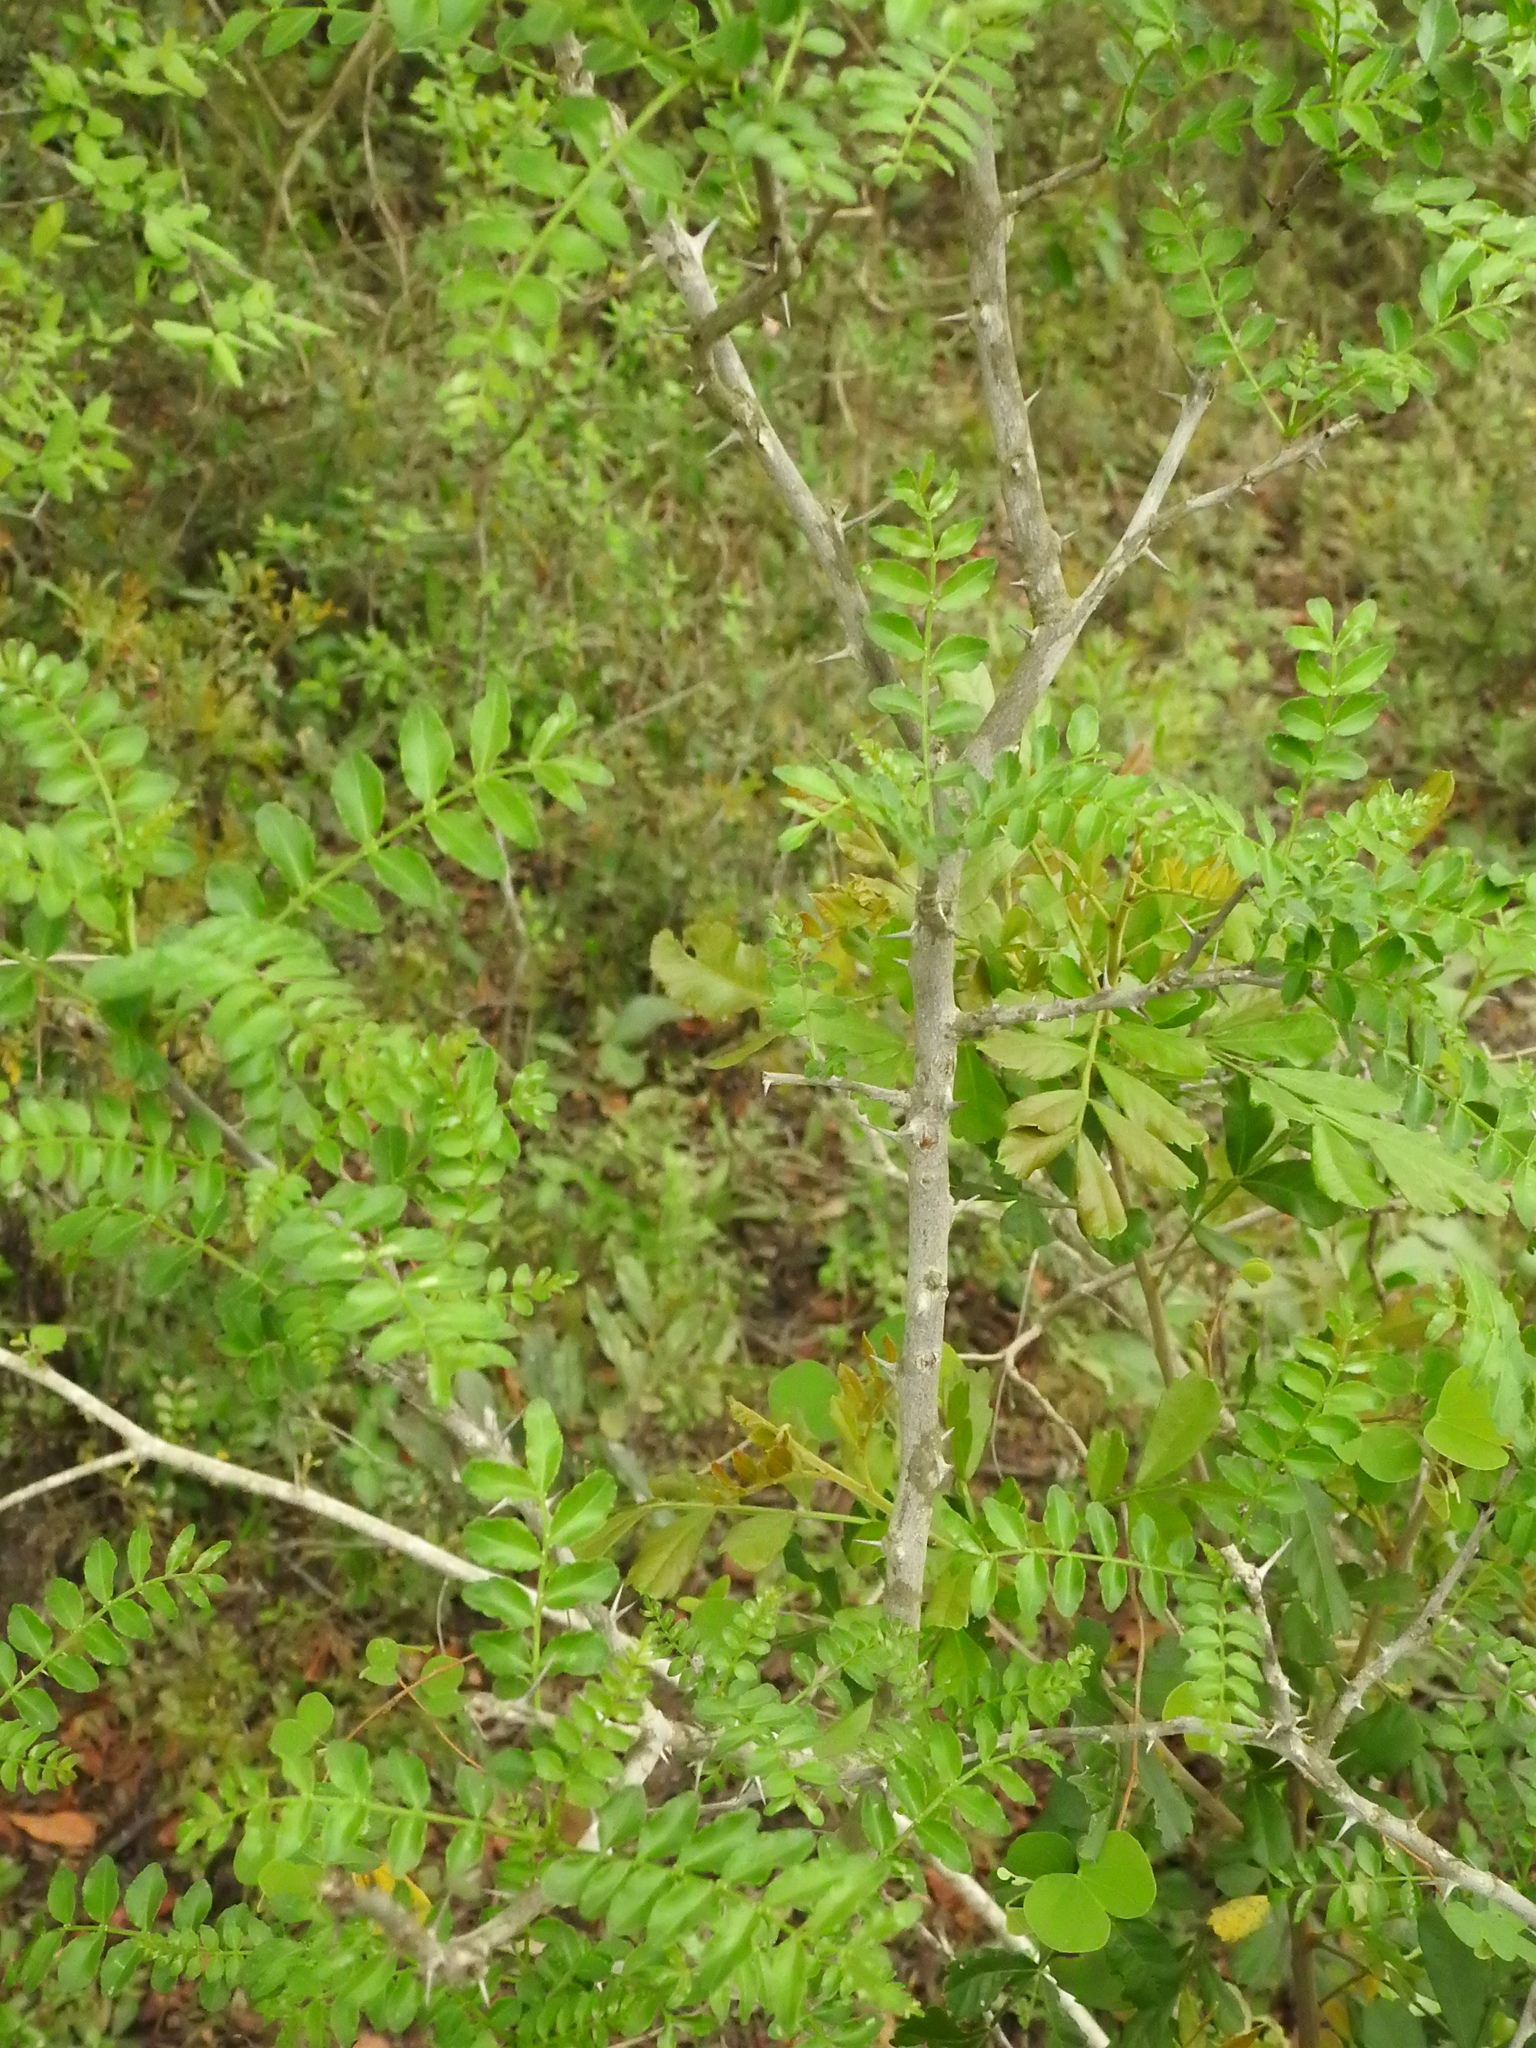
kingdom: Plantae
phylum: Tracheophyta
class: Magnoliopsida
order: Sapindales
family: Rutaceae
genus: Zanthoxylum
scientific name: Zanthoxylum capense
